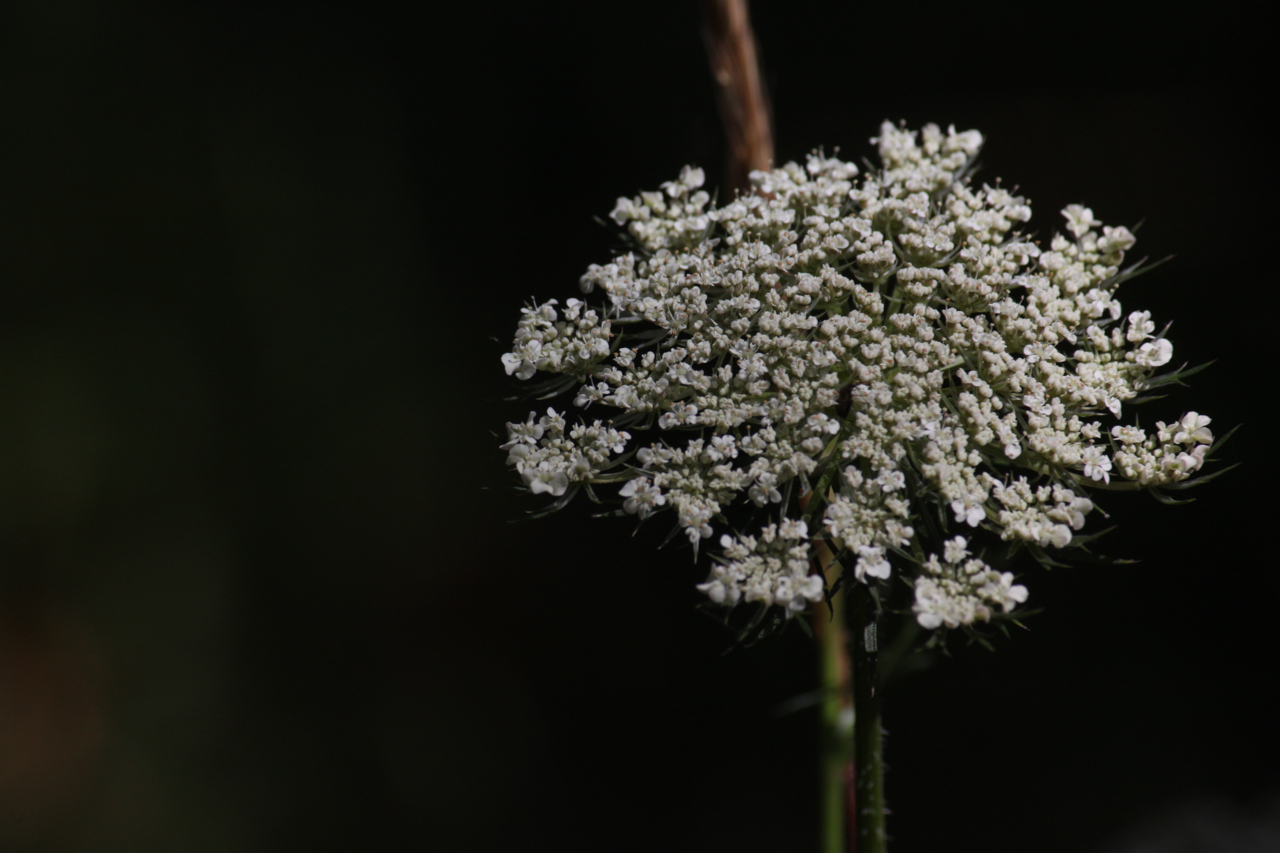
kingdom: Plantae
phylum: Tracheophyta
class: Magnoliopsida
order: Apiales
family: Apiaceae
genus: Daucus
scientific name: Daucus carota
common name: Wild carrot
